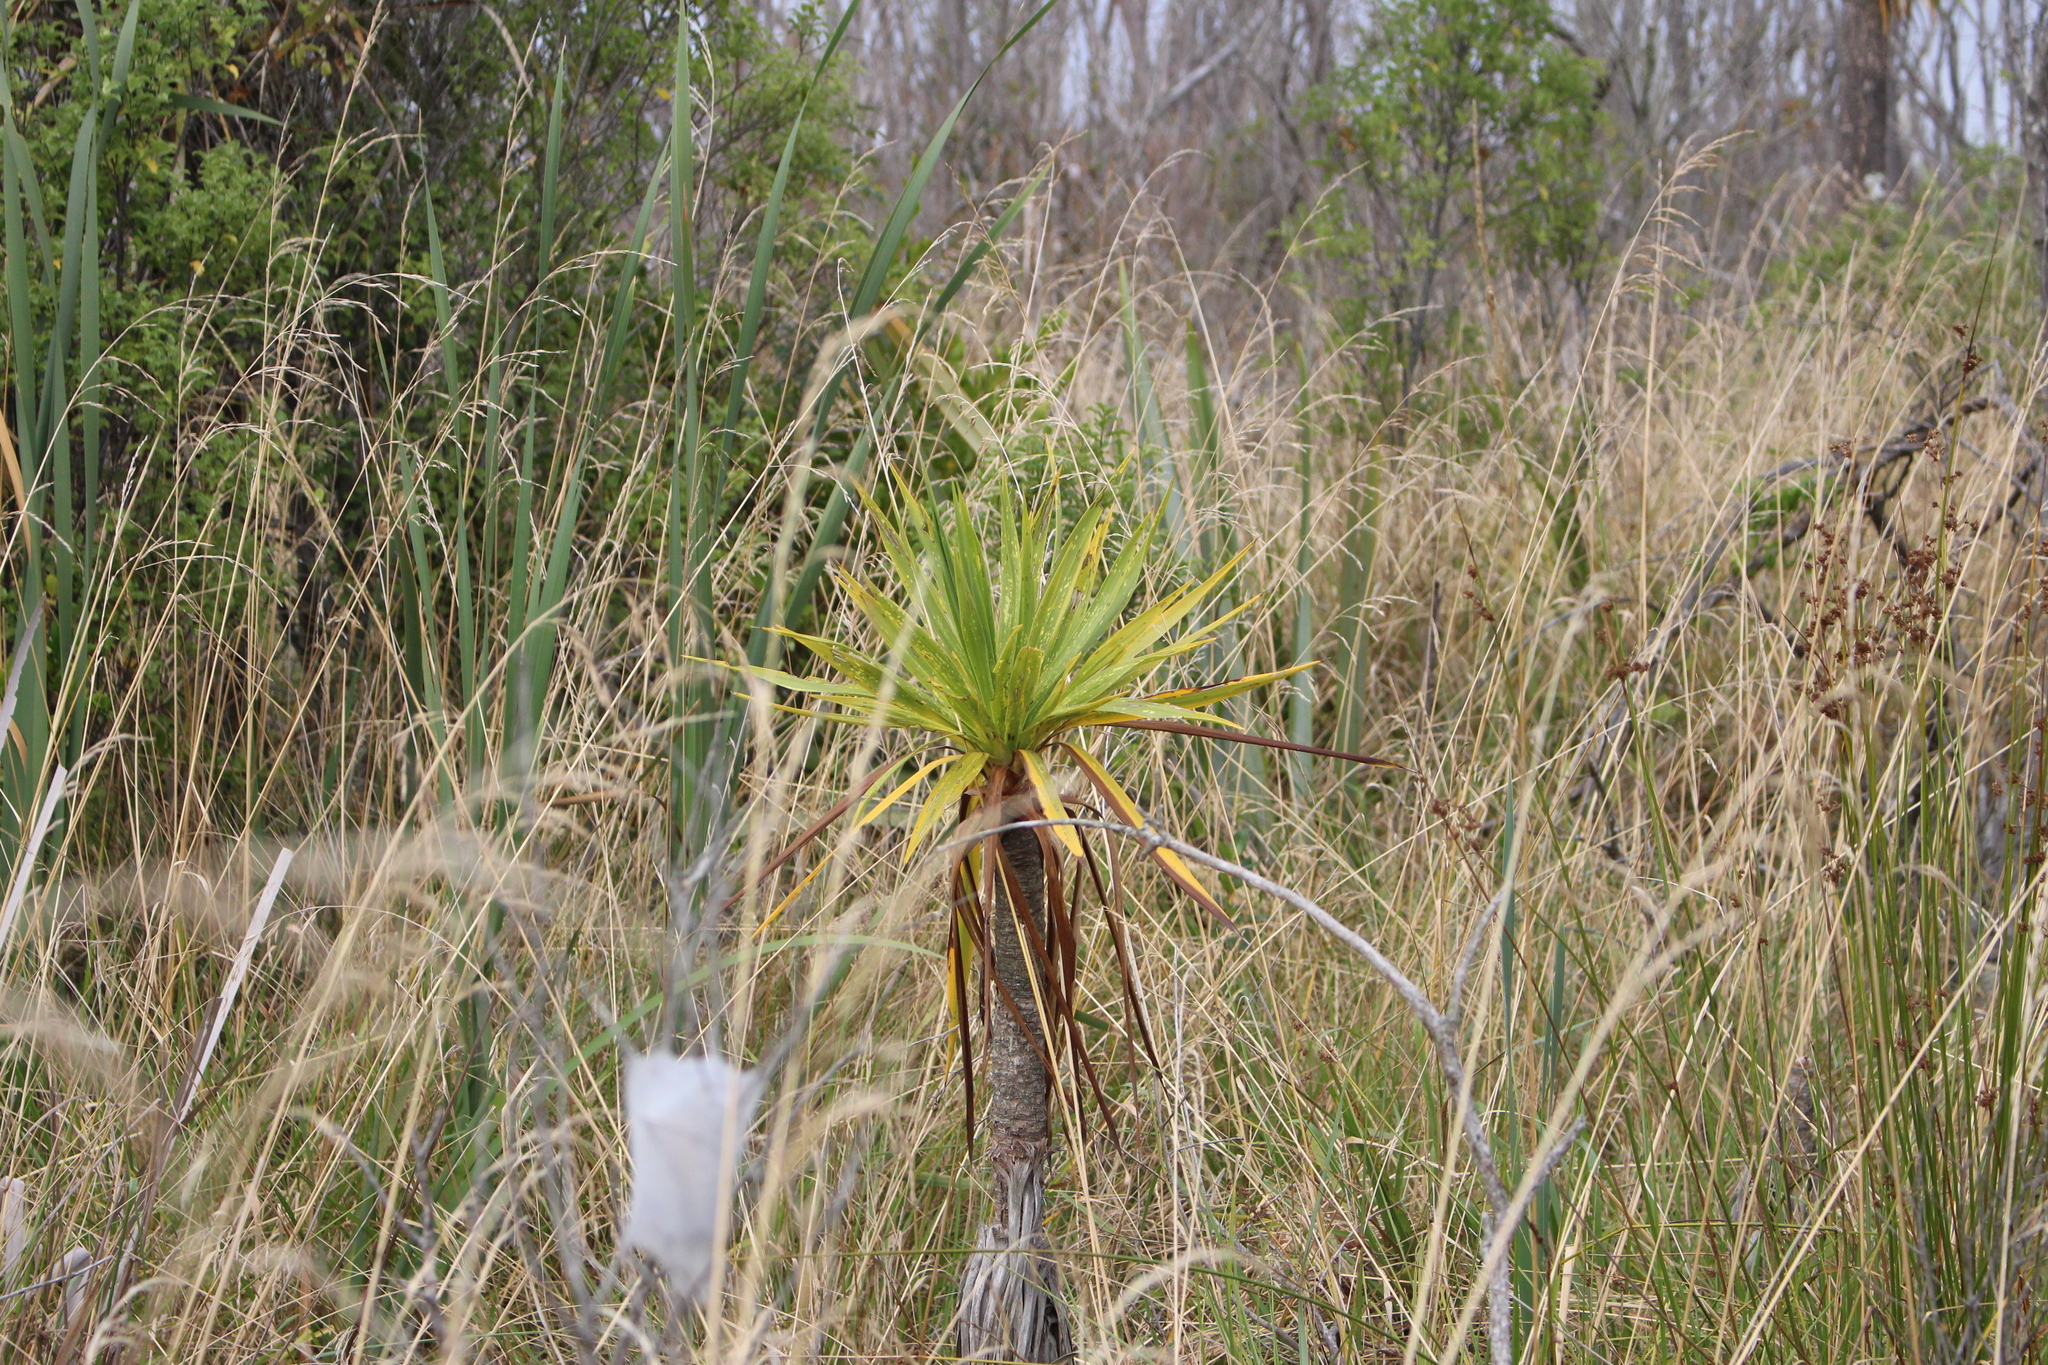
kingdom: Plantae
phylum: Tracheophyta
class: Liliopsida
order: Asparagales
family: Asparagaceae
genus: Cordyline
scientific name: Cordyline australis
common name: Cabbage-palm
